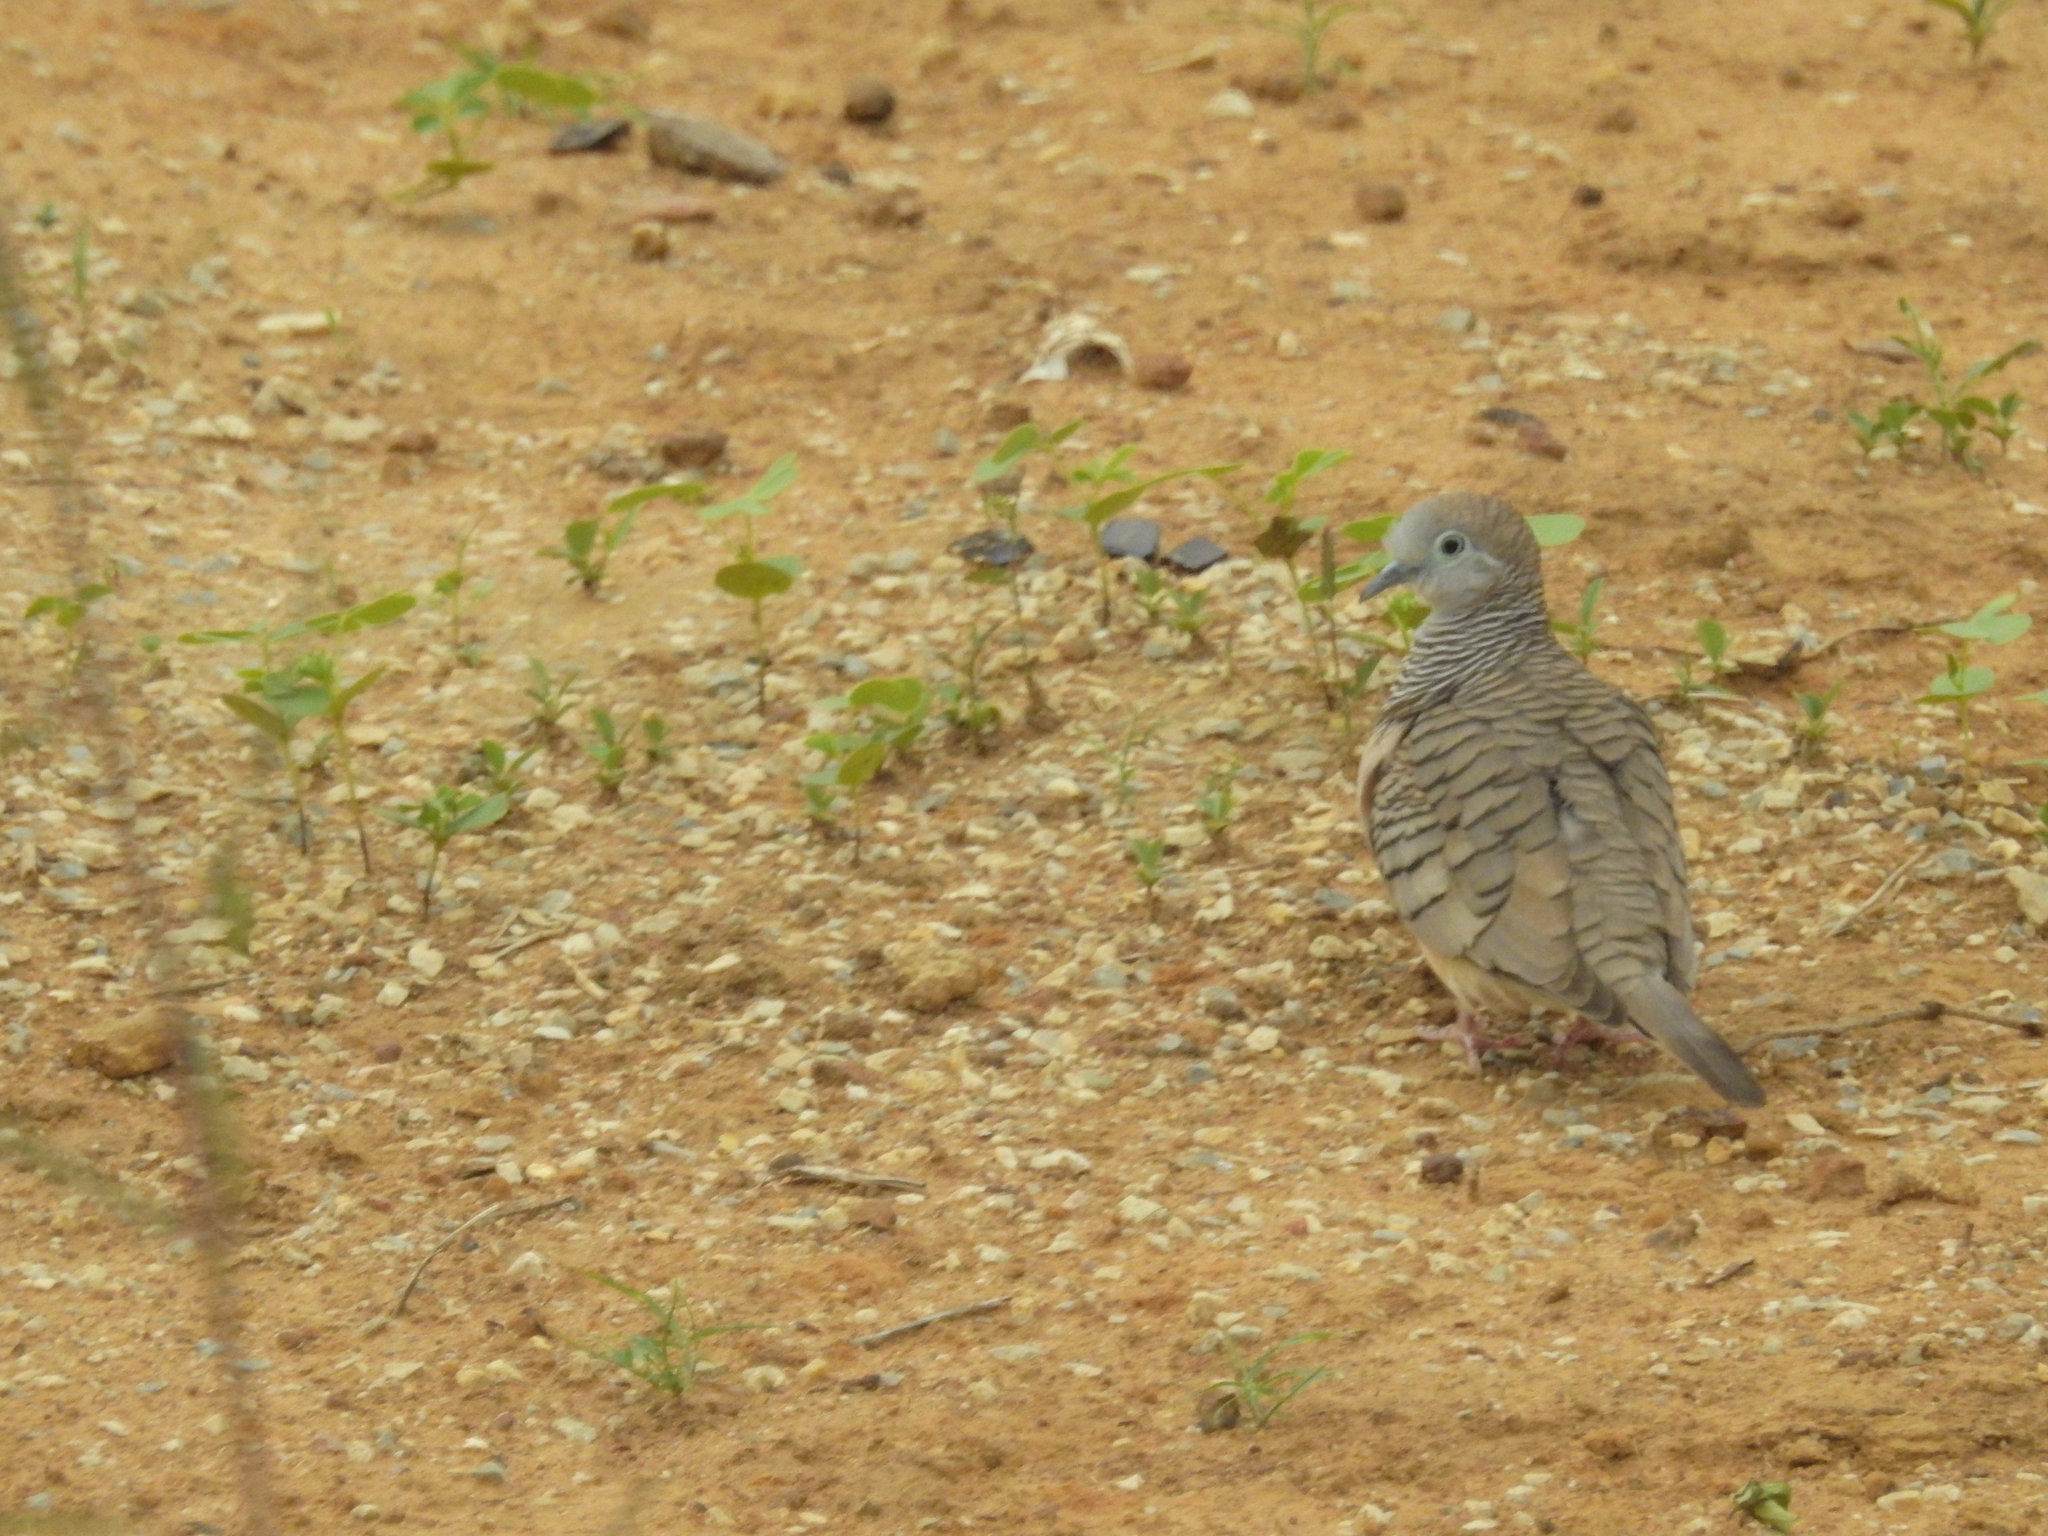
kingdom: Animalia
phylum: Chordata
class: Aves
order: Columbiformes
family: Columbidae
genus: Geopelia
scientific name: Geopelia placida
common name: Peaceful dove
